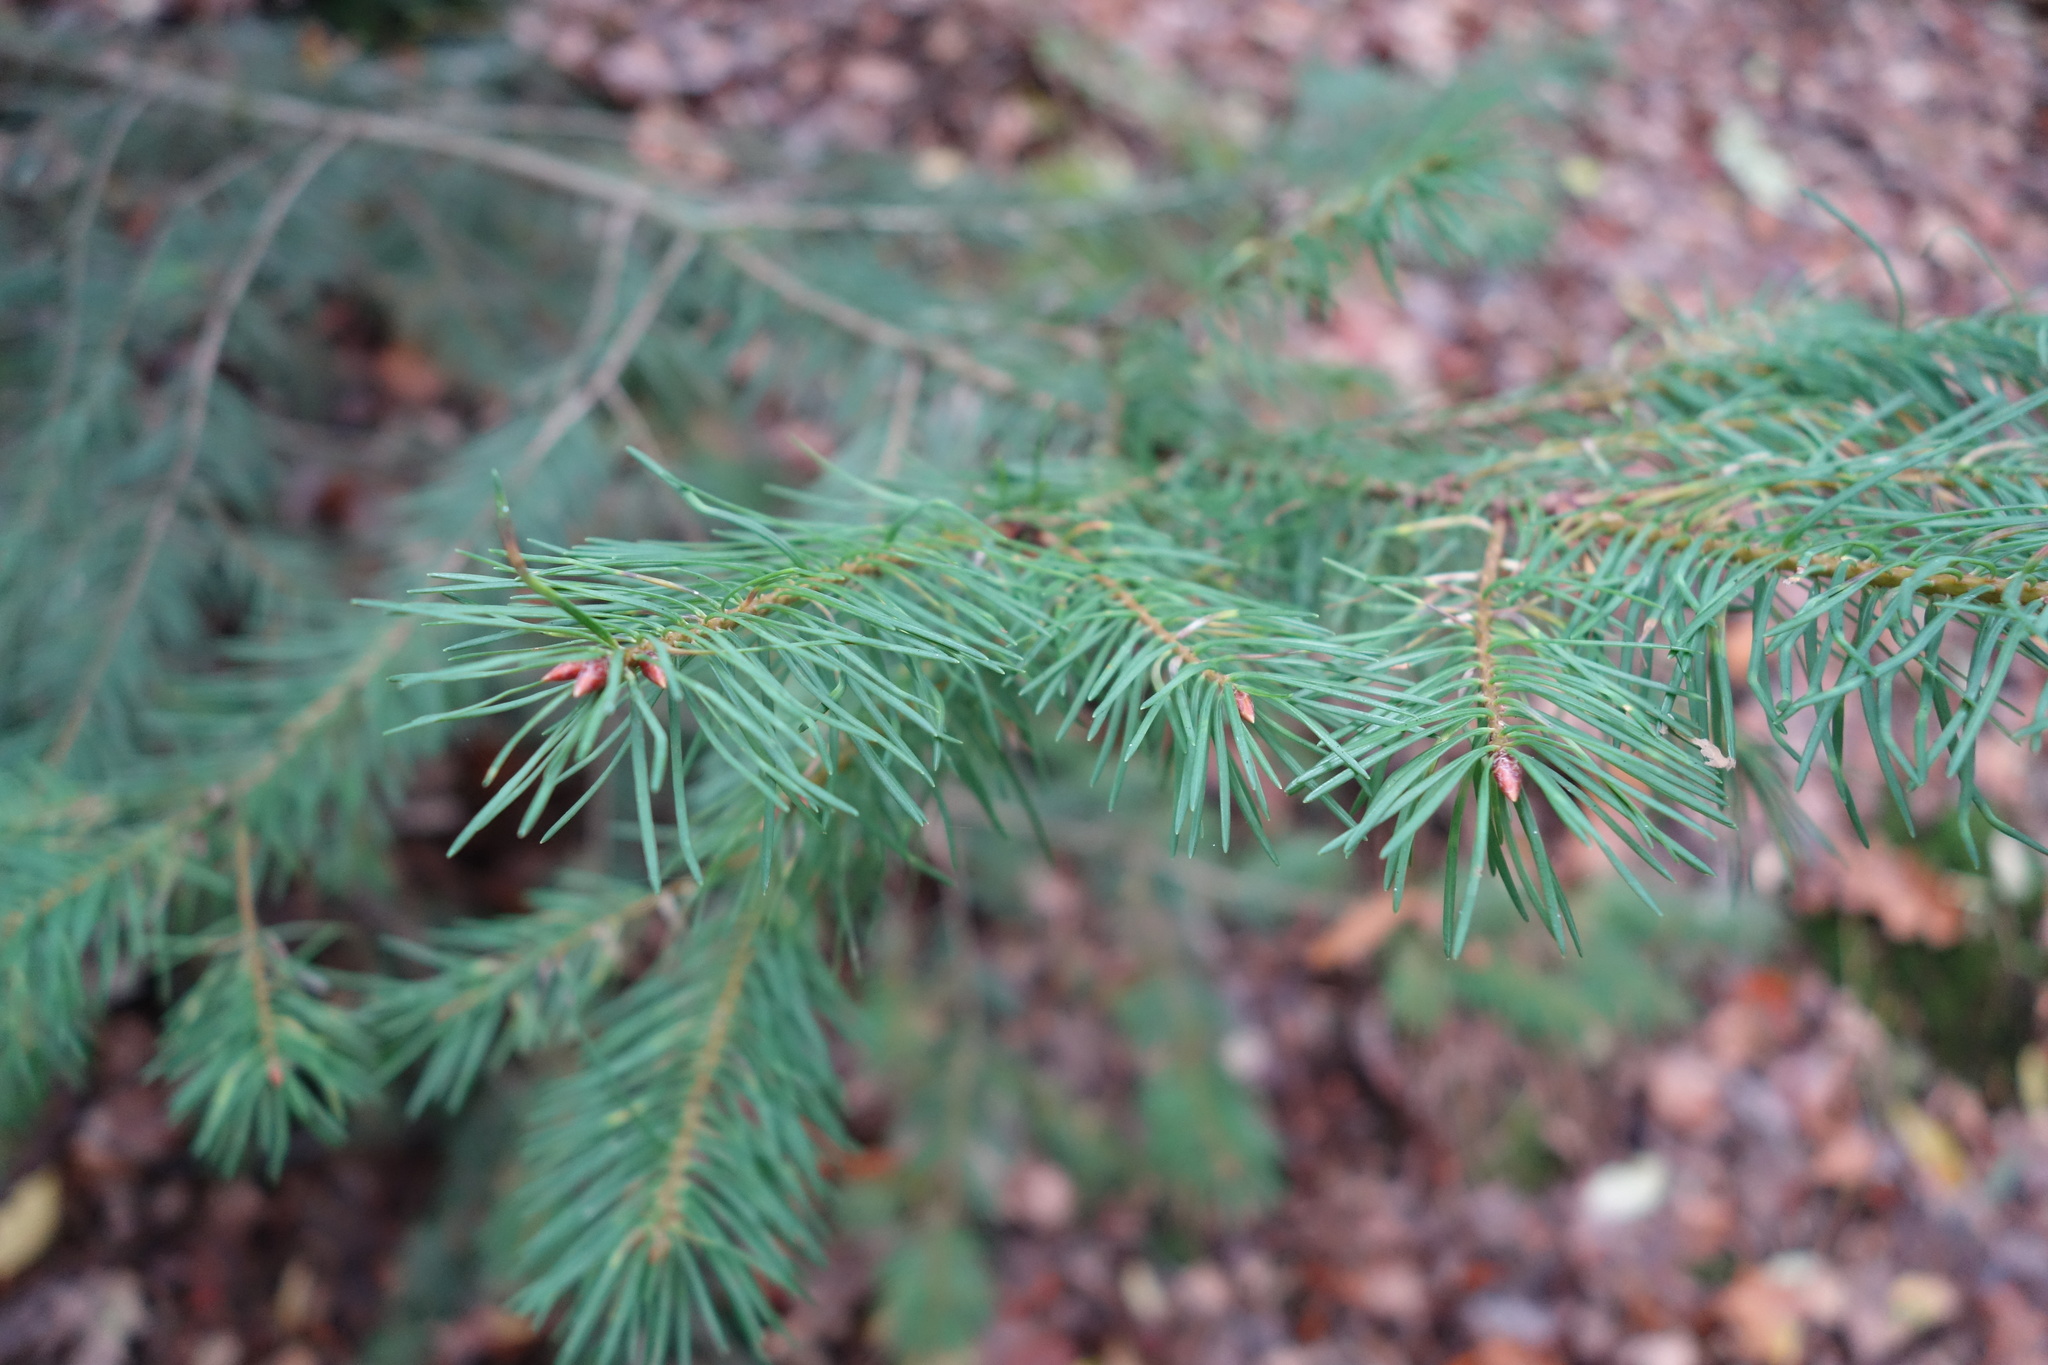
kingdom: Plantae
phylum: Tracheophyta
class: Pinopsida
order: Pinales
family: Pinaceae
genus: Pseudotsuga
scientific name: Pseudotsuga menziesii
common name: Douglas fir
